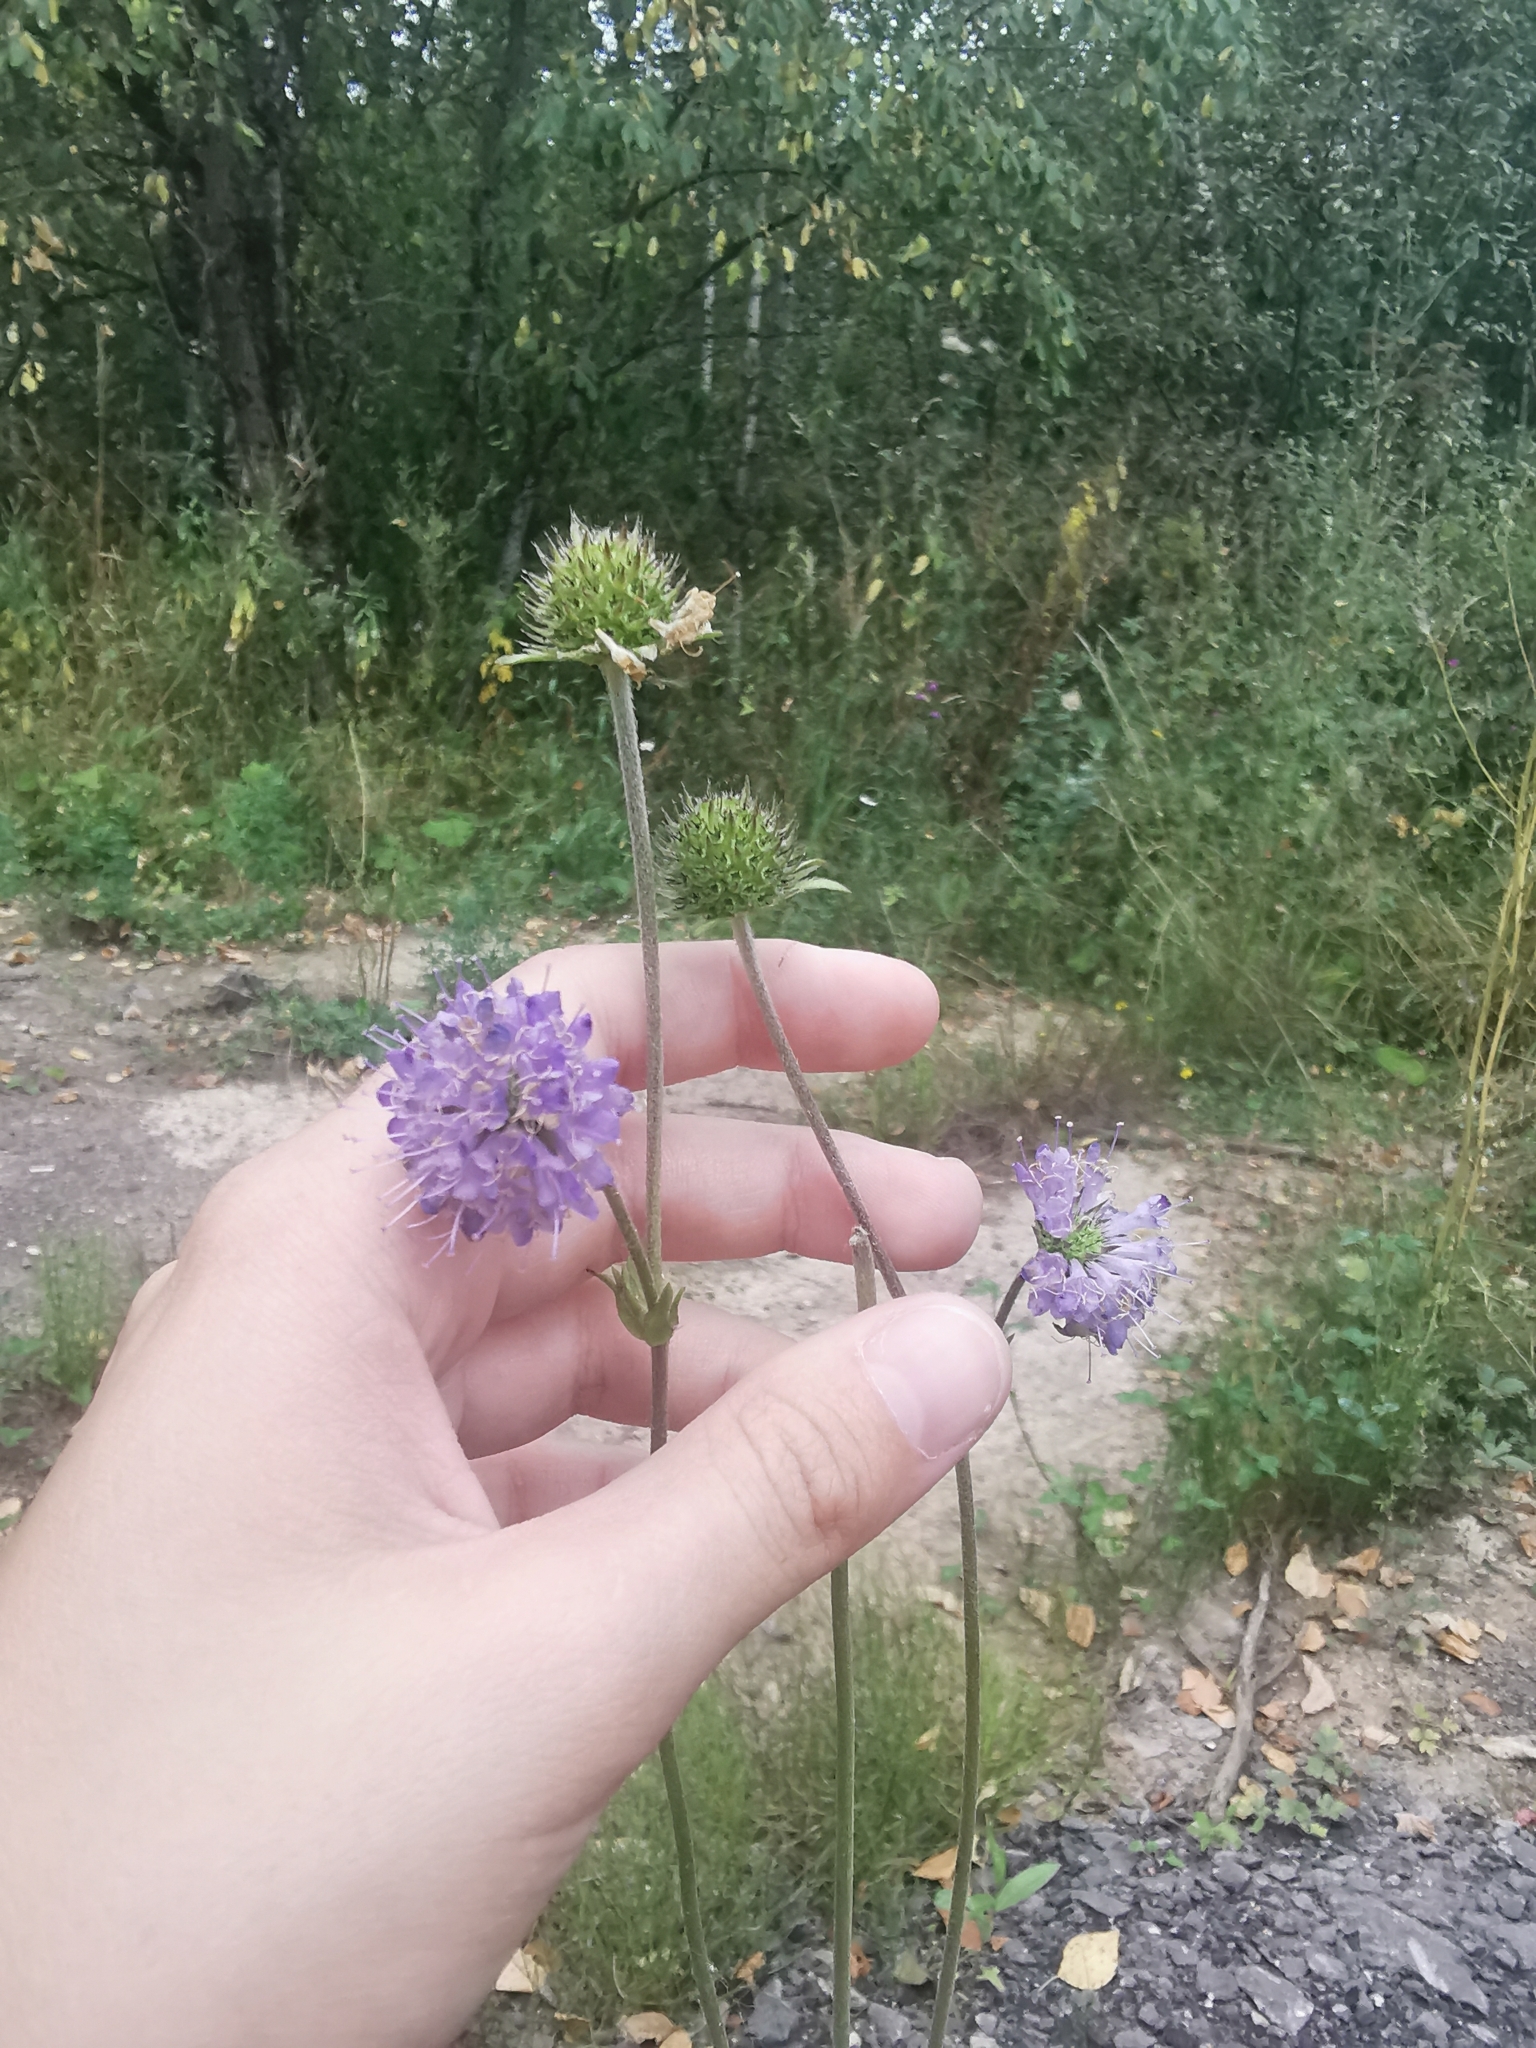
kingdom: Plantae
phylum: Tracheophyta
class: Magnoliopsida
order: Dipsacales
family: Caprifoliaceae
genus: Succisa
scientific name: Succisa pratensis
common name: Devil's-bit
